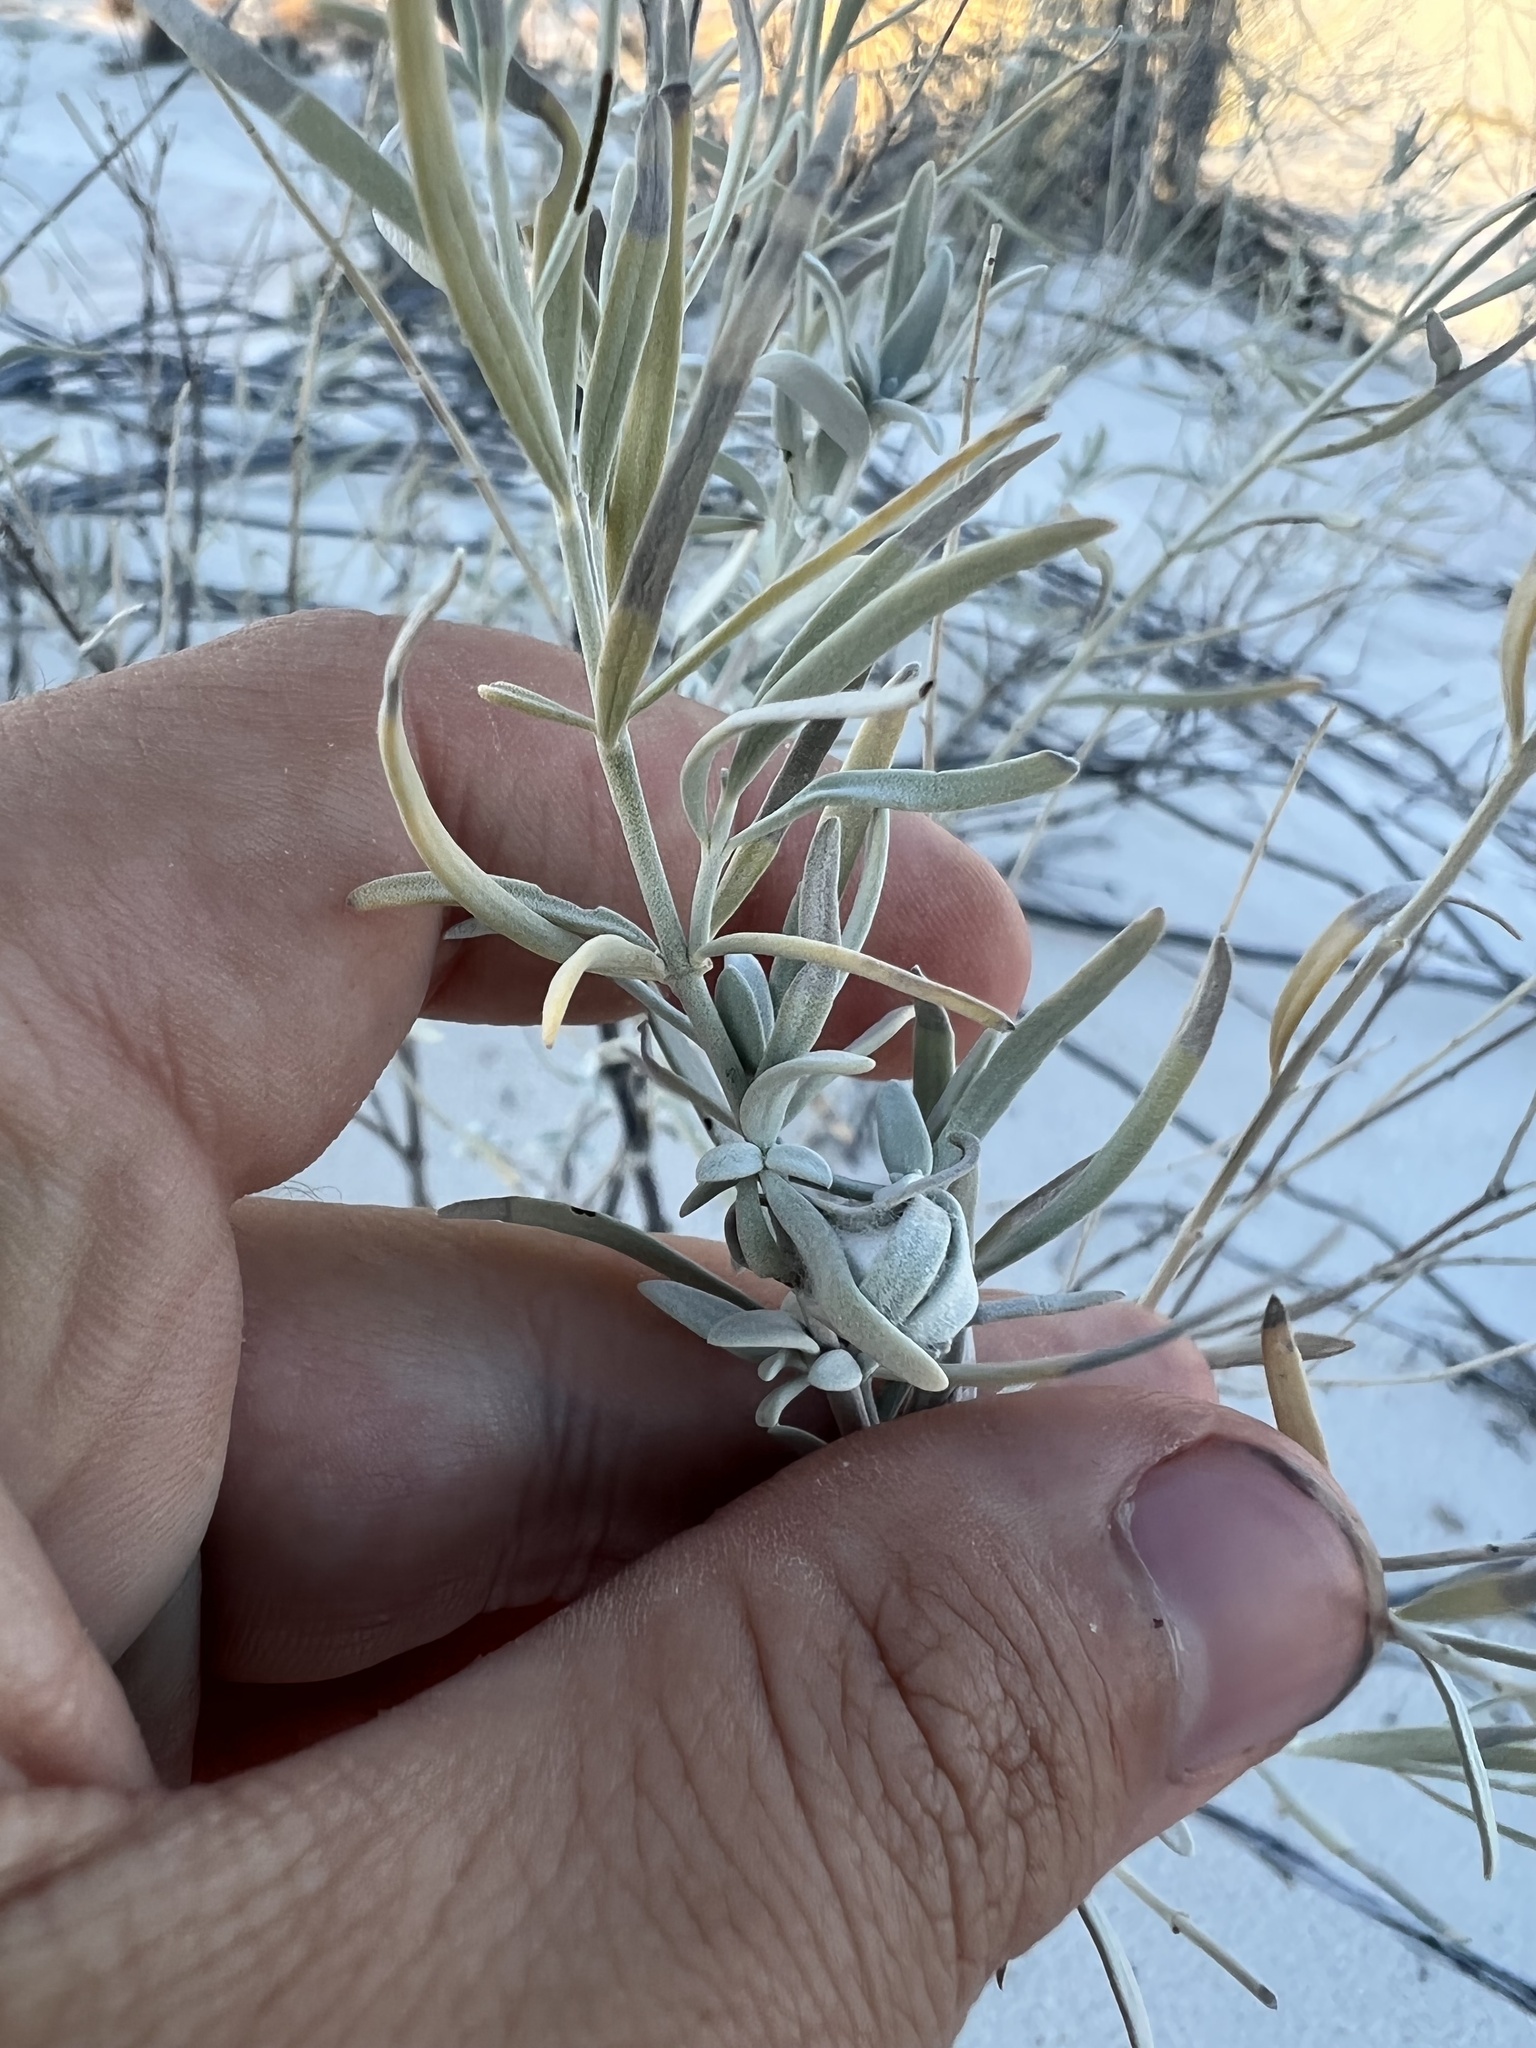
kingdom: Plantae
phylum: Tracheophyta
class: Magnoliopsida
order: Lamiales
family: Lamiaceae
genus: Poliomintha
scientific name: Poliomintha incana
